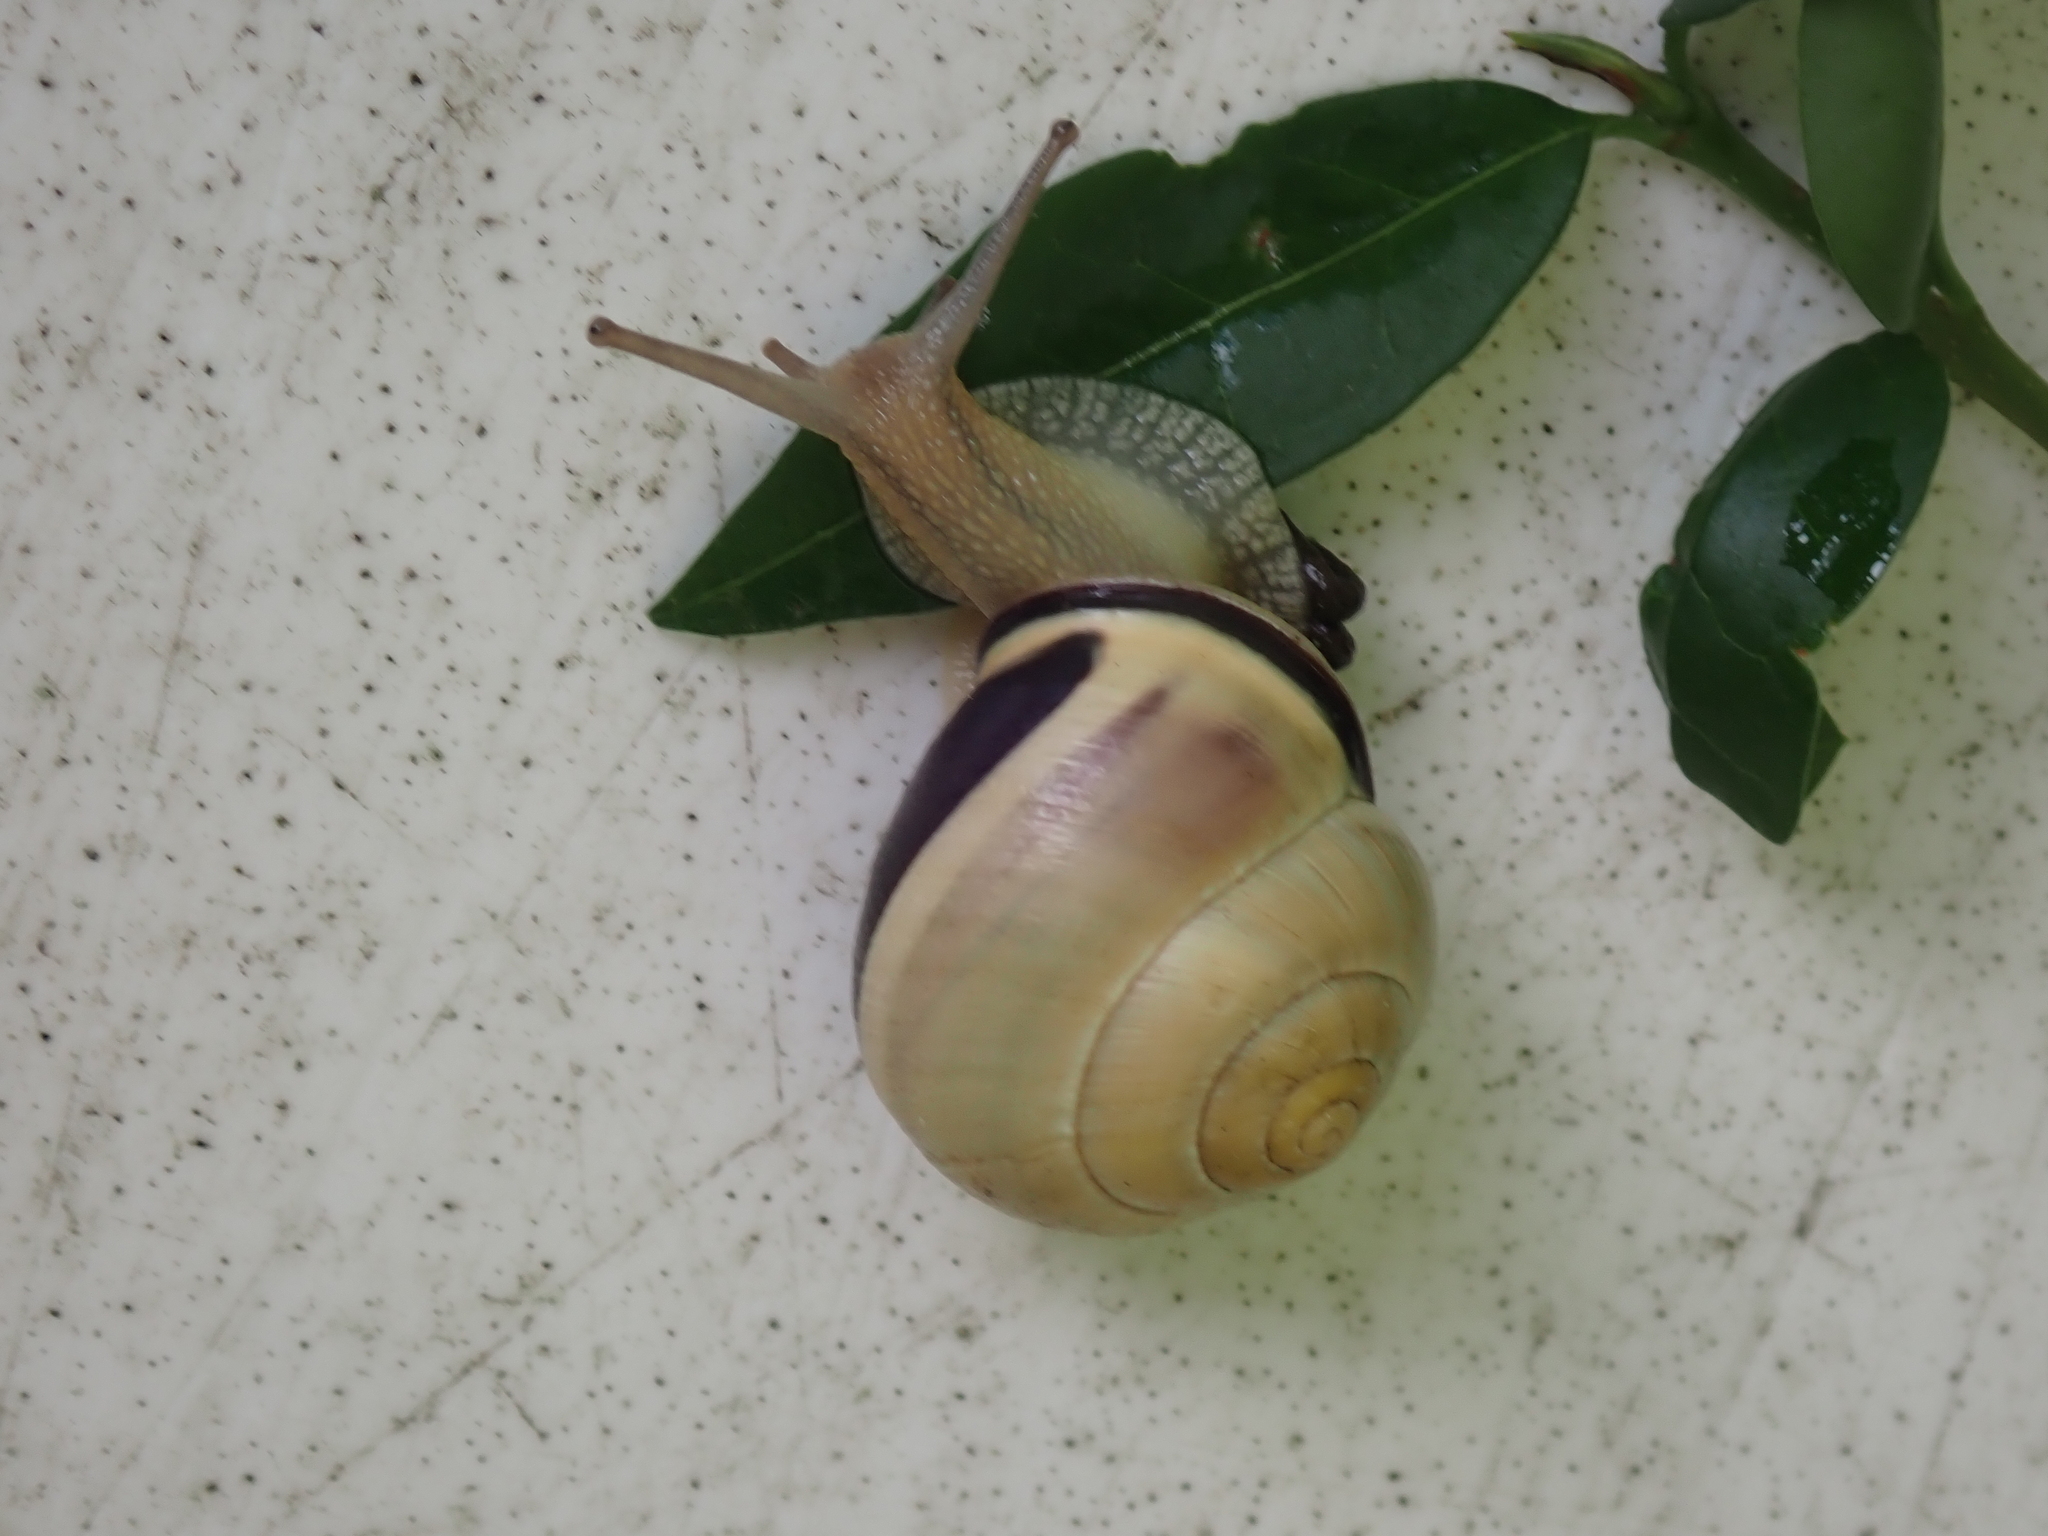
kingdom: Animalia
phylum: Mollusca
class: Gastropoda
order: Stylommatophora
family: Helicidae
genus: Cepaea
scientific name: Cepaea nemoralis
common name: Grovesnail
